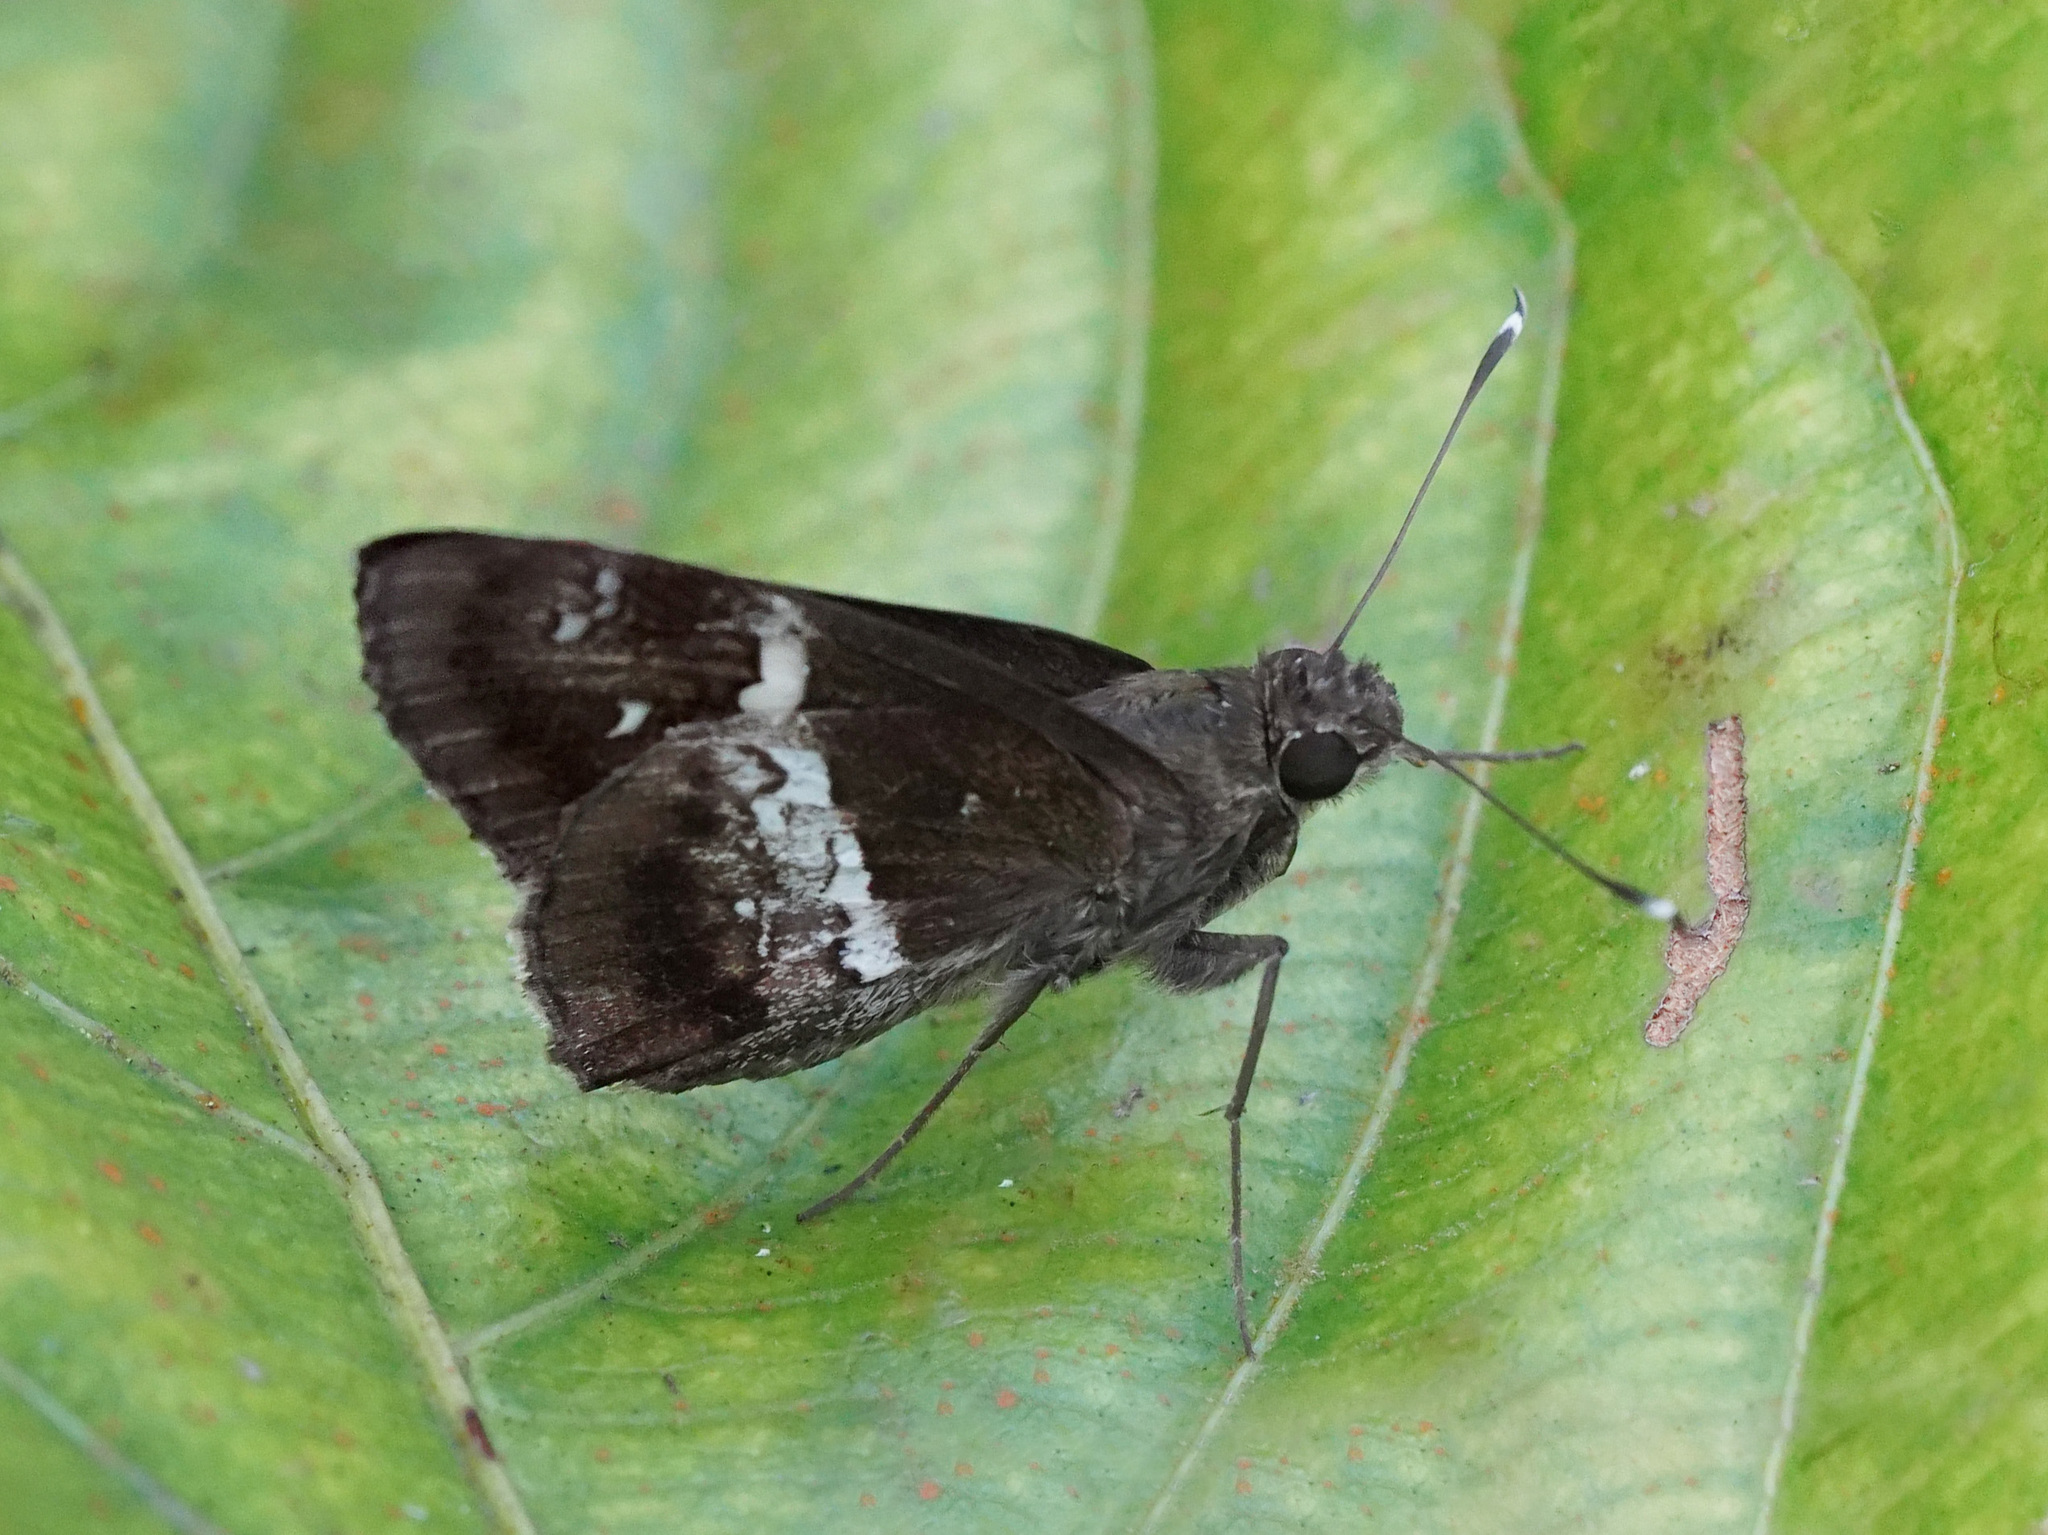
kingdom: Animalia
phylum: Arthropoda
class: Insecta
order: Lepidoptera
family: Hesperiidae
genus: Hyarotis
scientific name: Hyarotis adrastus
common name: Tree flitter
